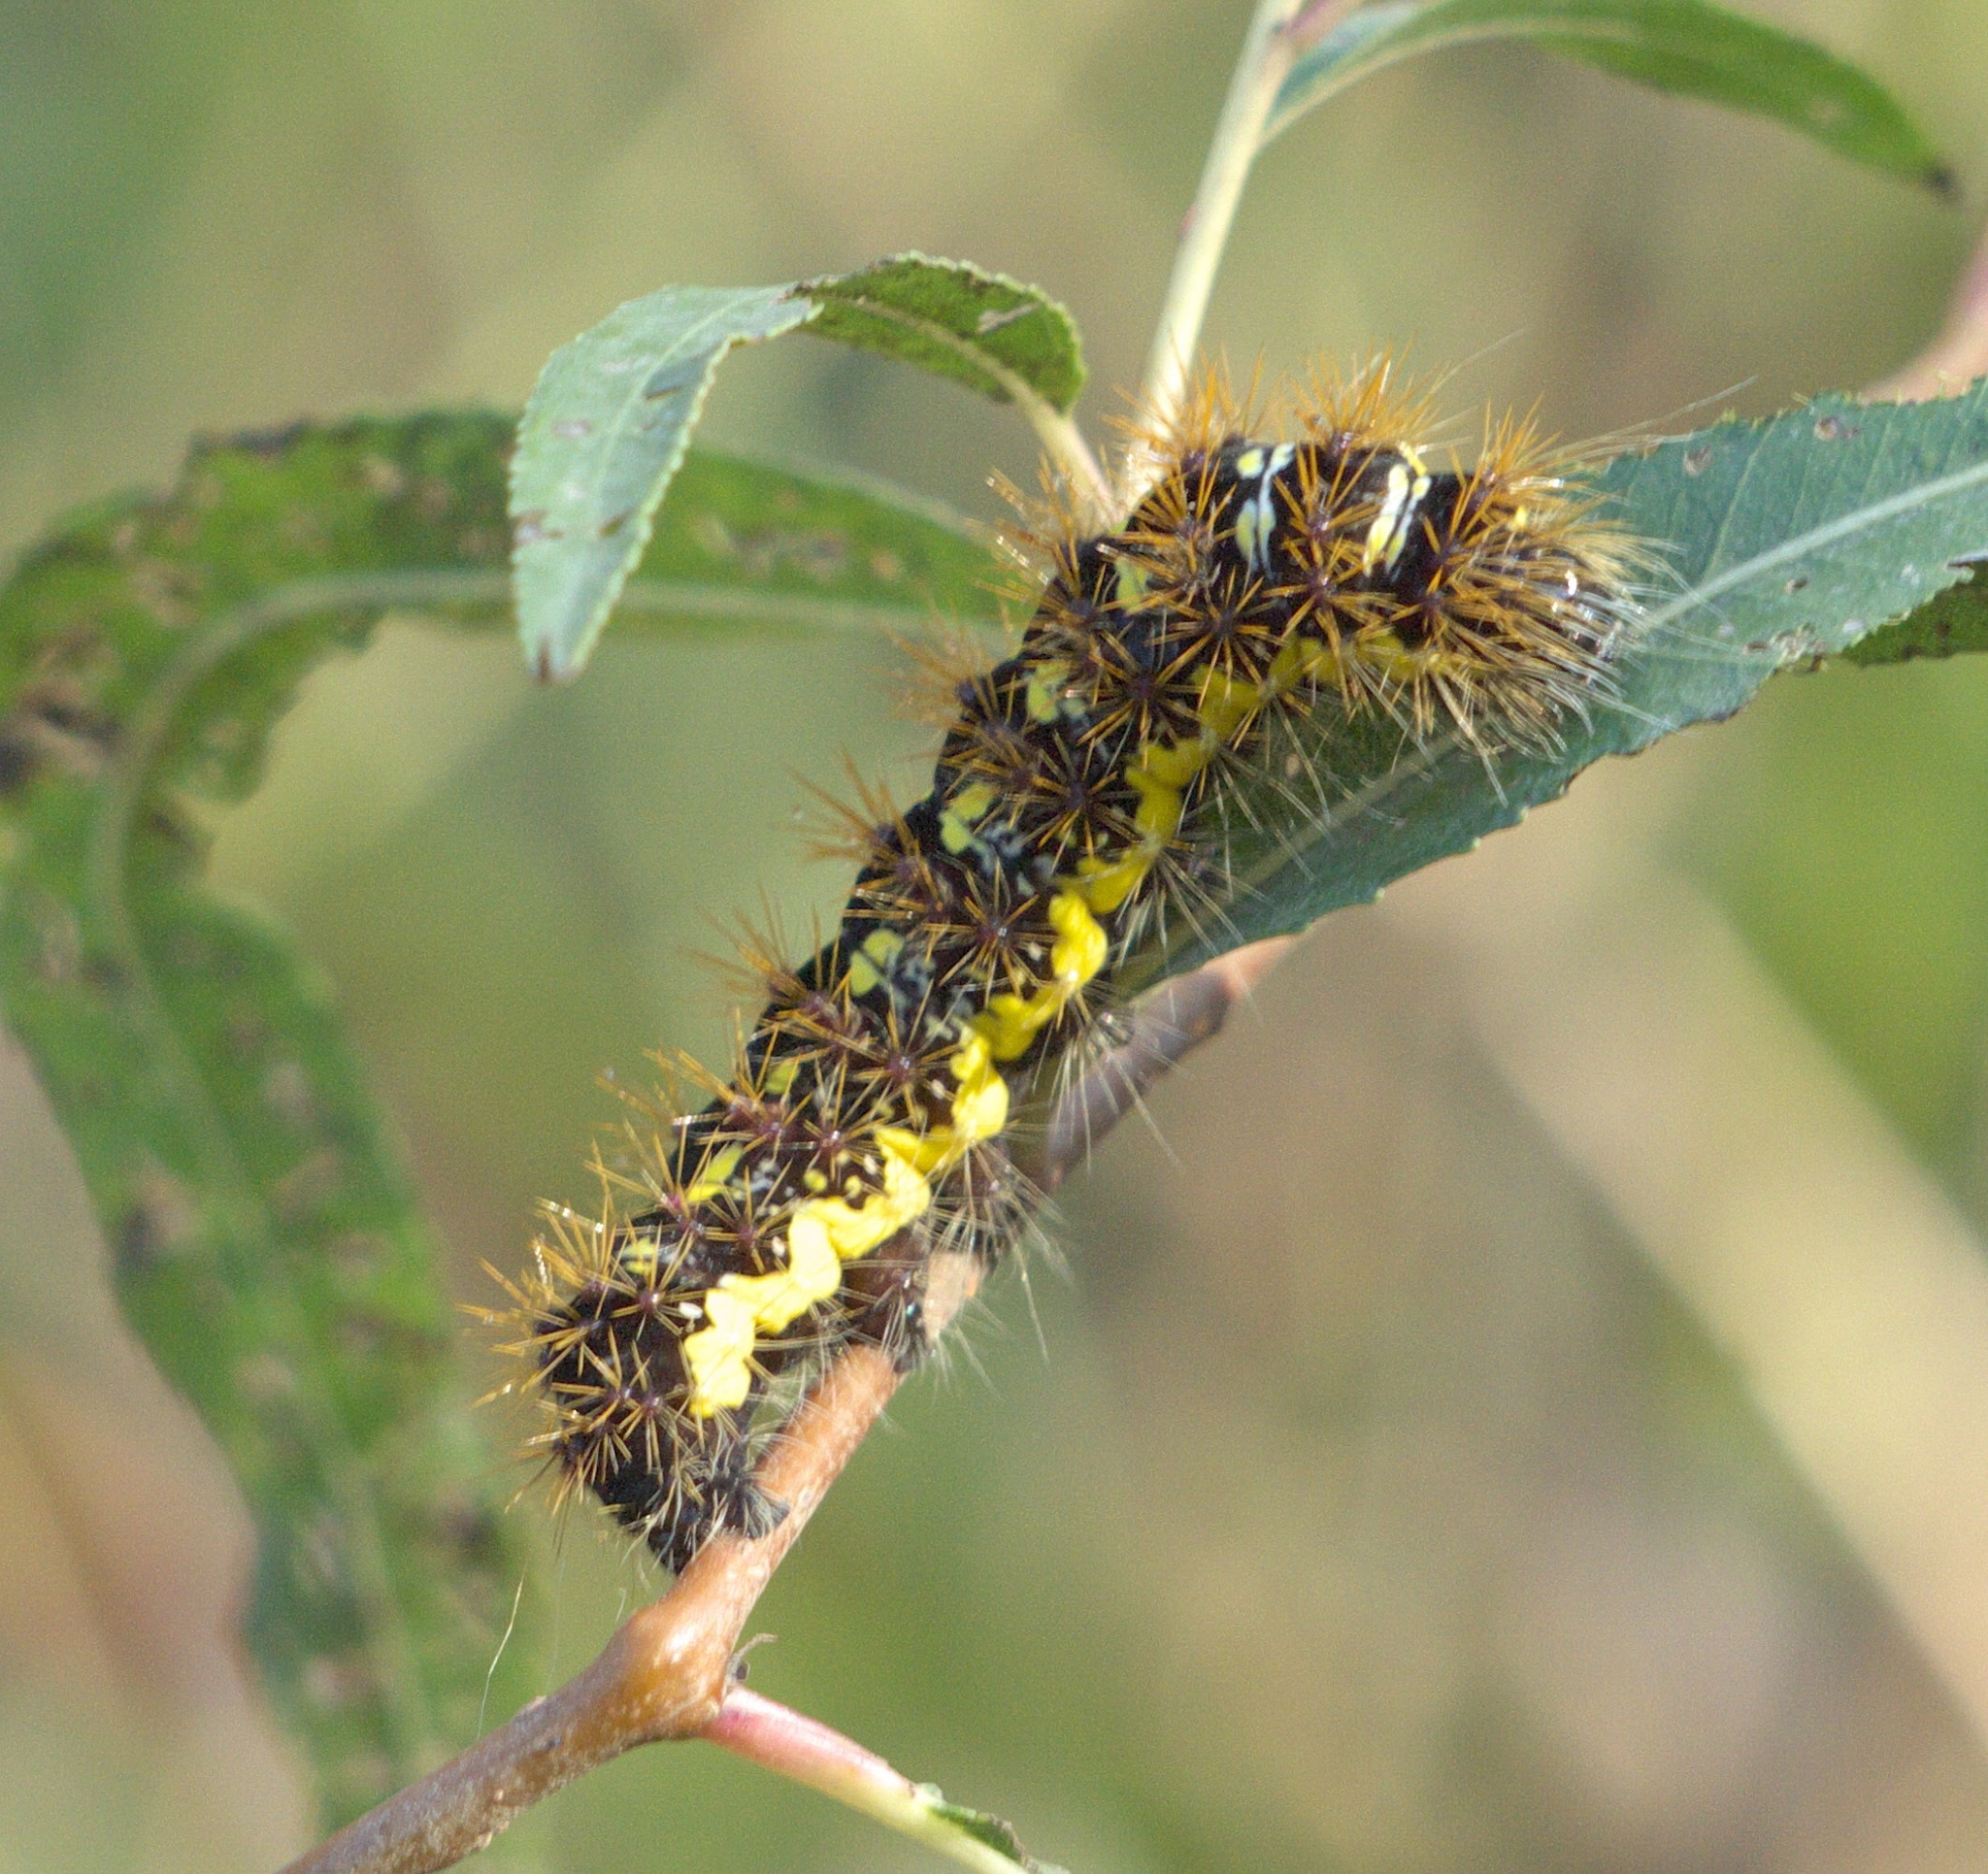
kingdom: Animalia
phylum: Arthropoda
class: Insecta
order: Lepidoptera
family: Noctuidae
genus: Acronicta
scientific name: Acronicta oblinita
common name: Smeared dagger
